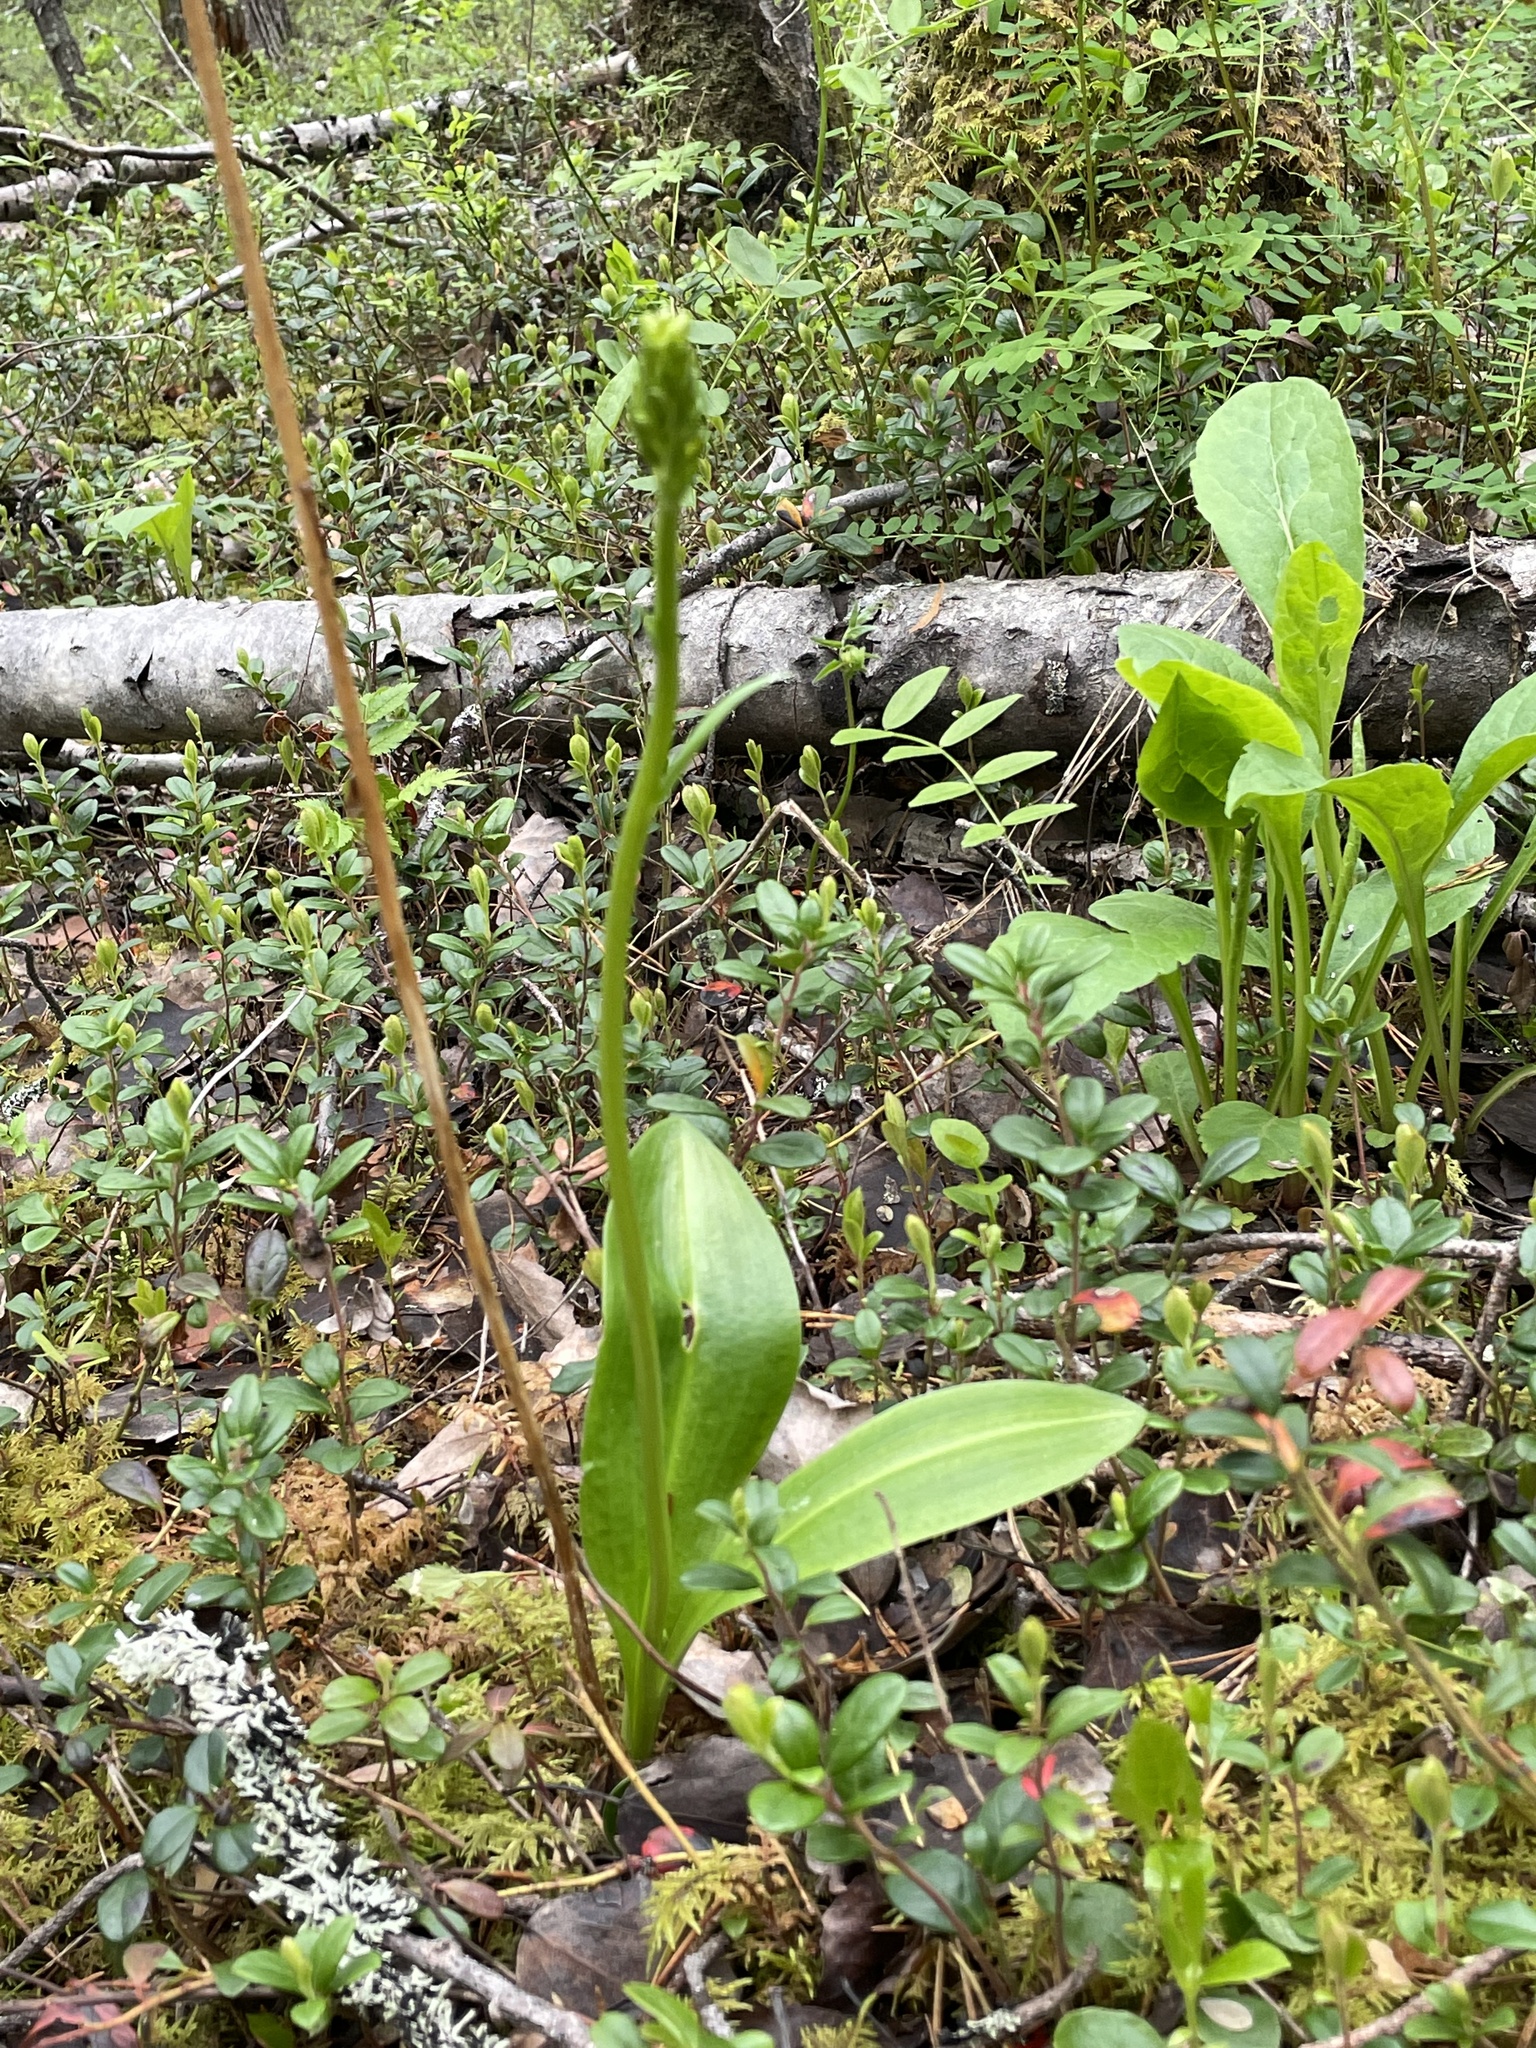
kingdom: Plantae
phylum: Tracheophyta
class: Liliopsida
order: Asparagales
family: Orchidaceae
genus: Platanthera
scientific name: Platanthera bifolia
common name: Lesser butterfly-orchid
